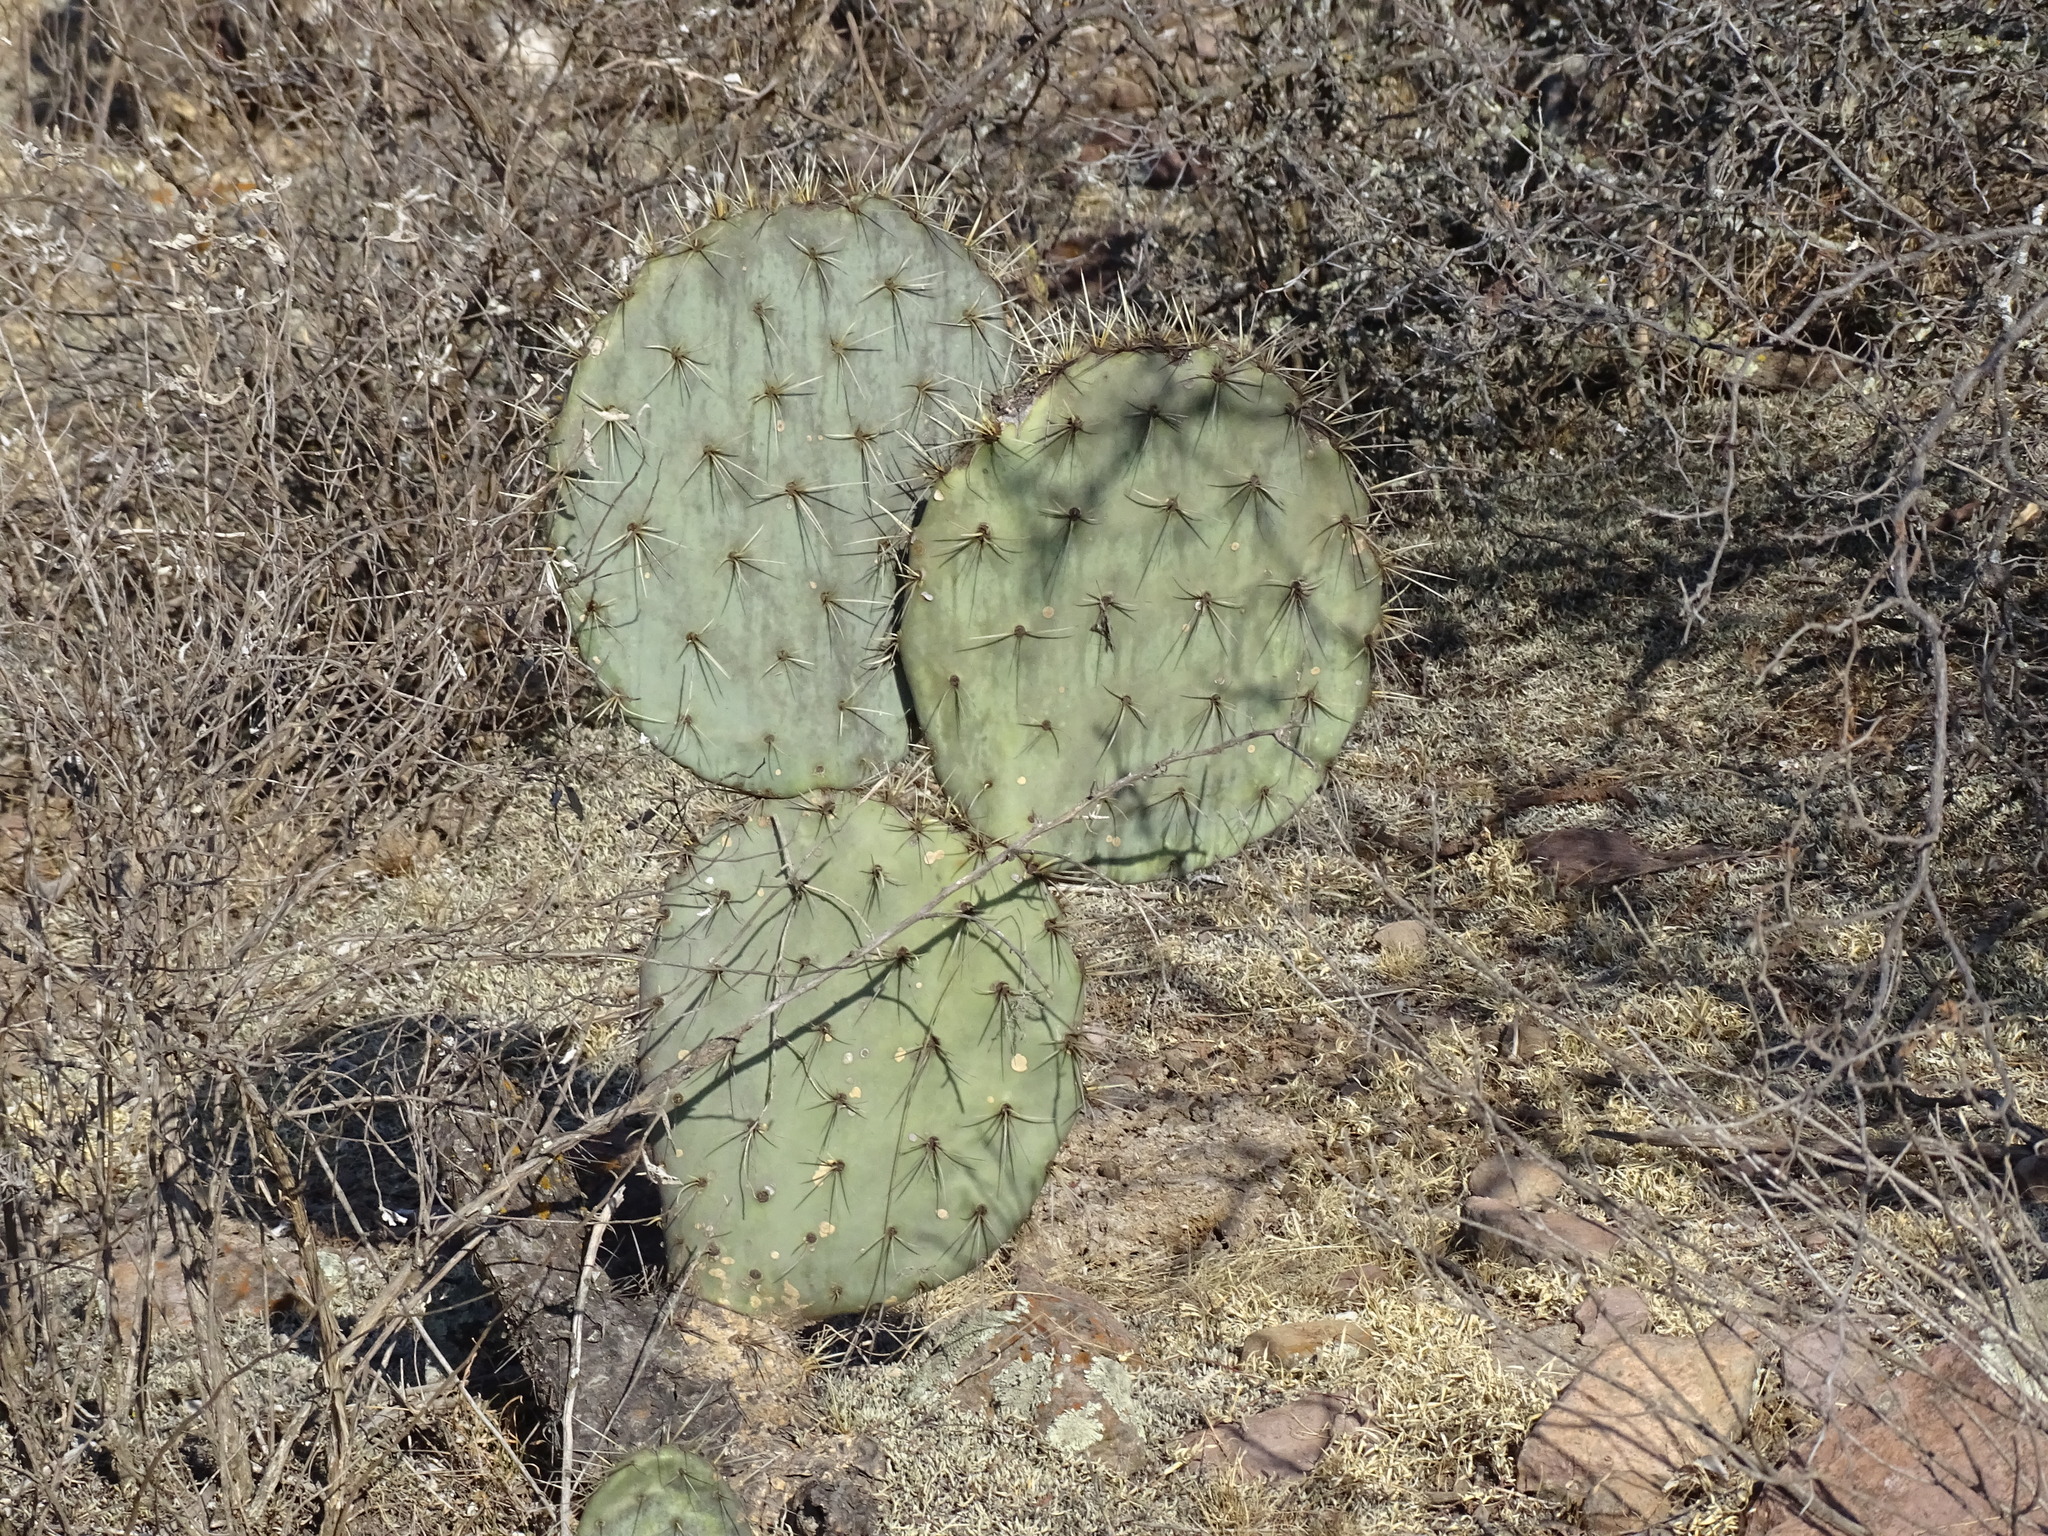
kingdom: Plantae
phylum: Tracheophyta
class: Magnoliopsida
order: Caryophyllales
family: Cactaceae
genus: Opuntia
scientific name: Opuntia robusta
